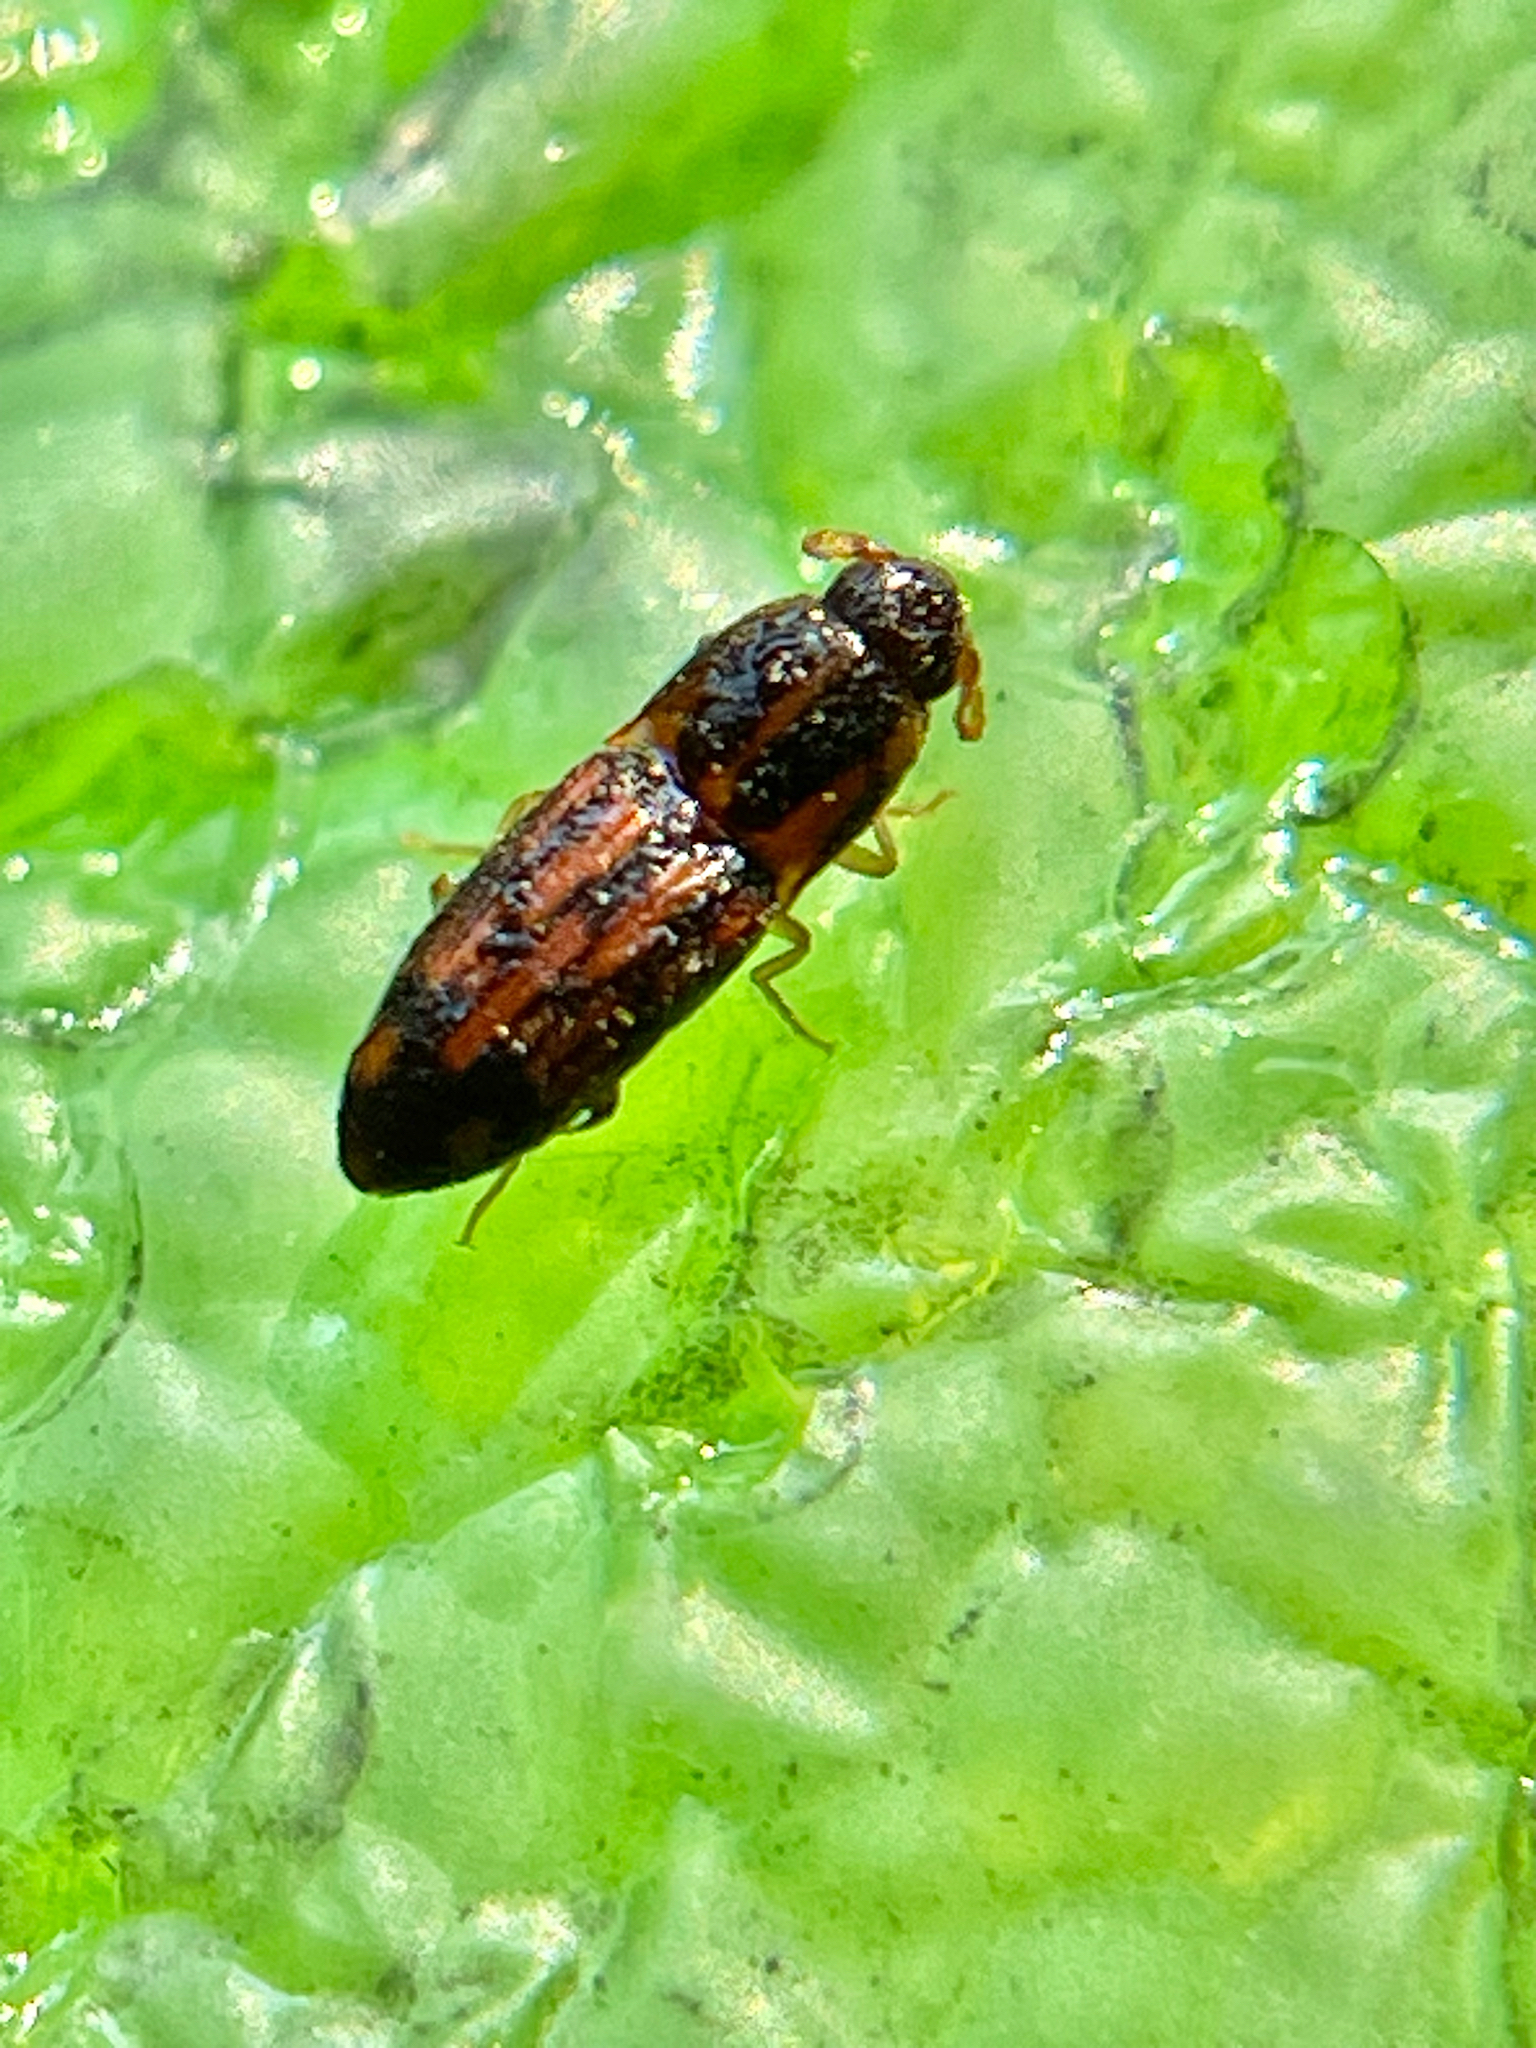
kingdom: Animalia
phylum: Arthropoda
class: Insecta
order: Coleoptera
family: Elateridae
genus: Monocrepidius
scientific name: Monocrepidius bellus
